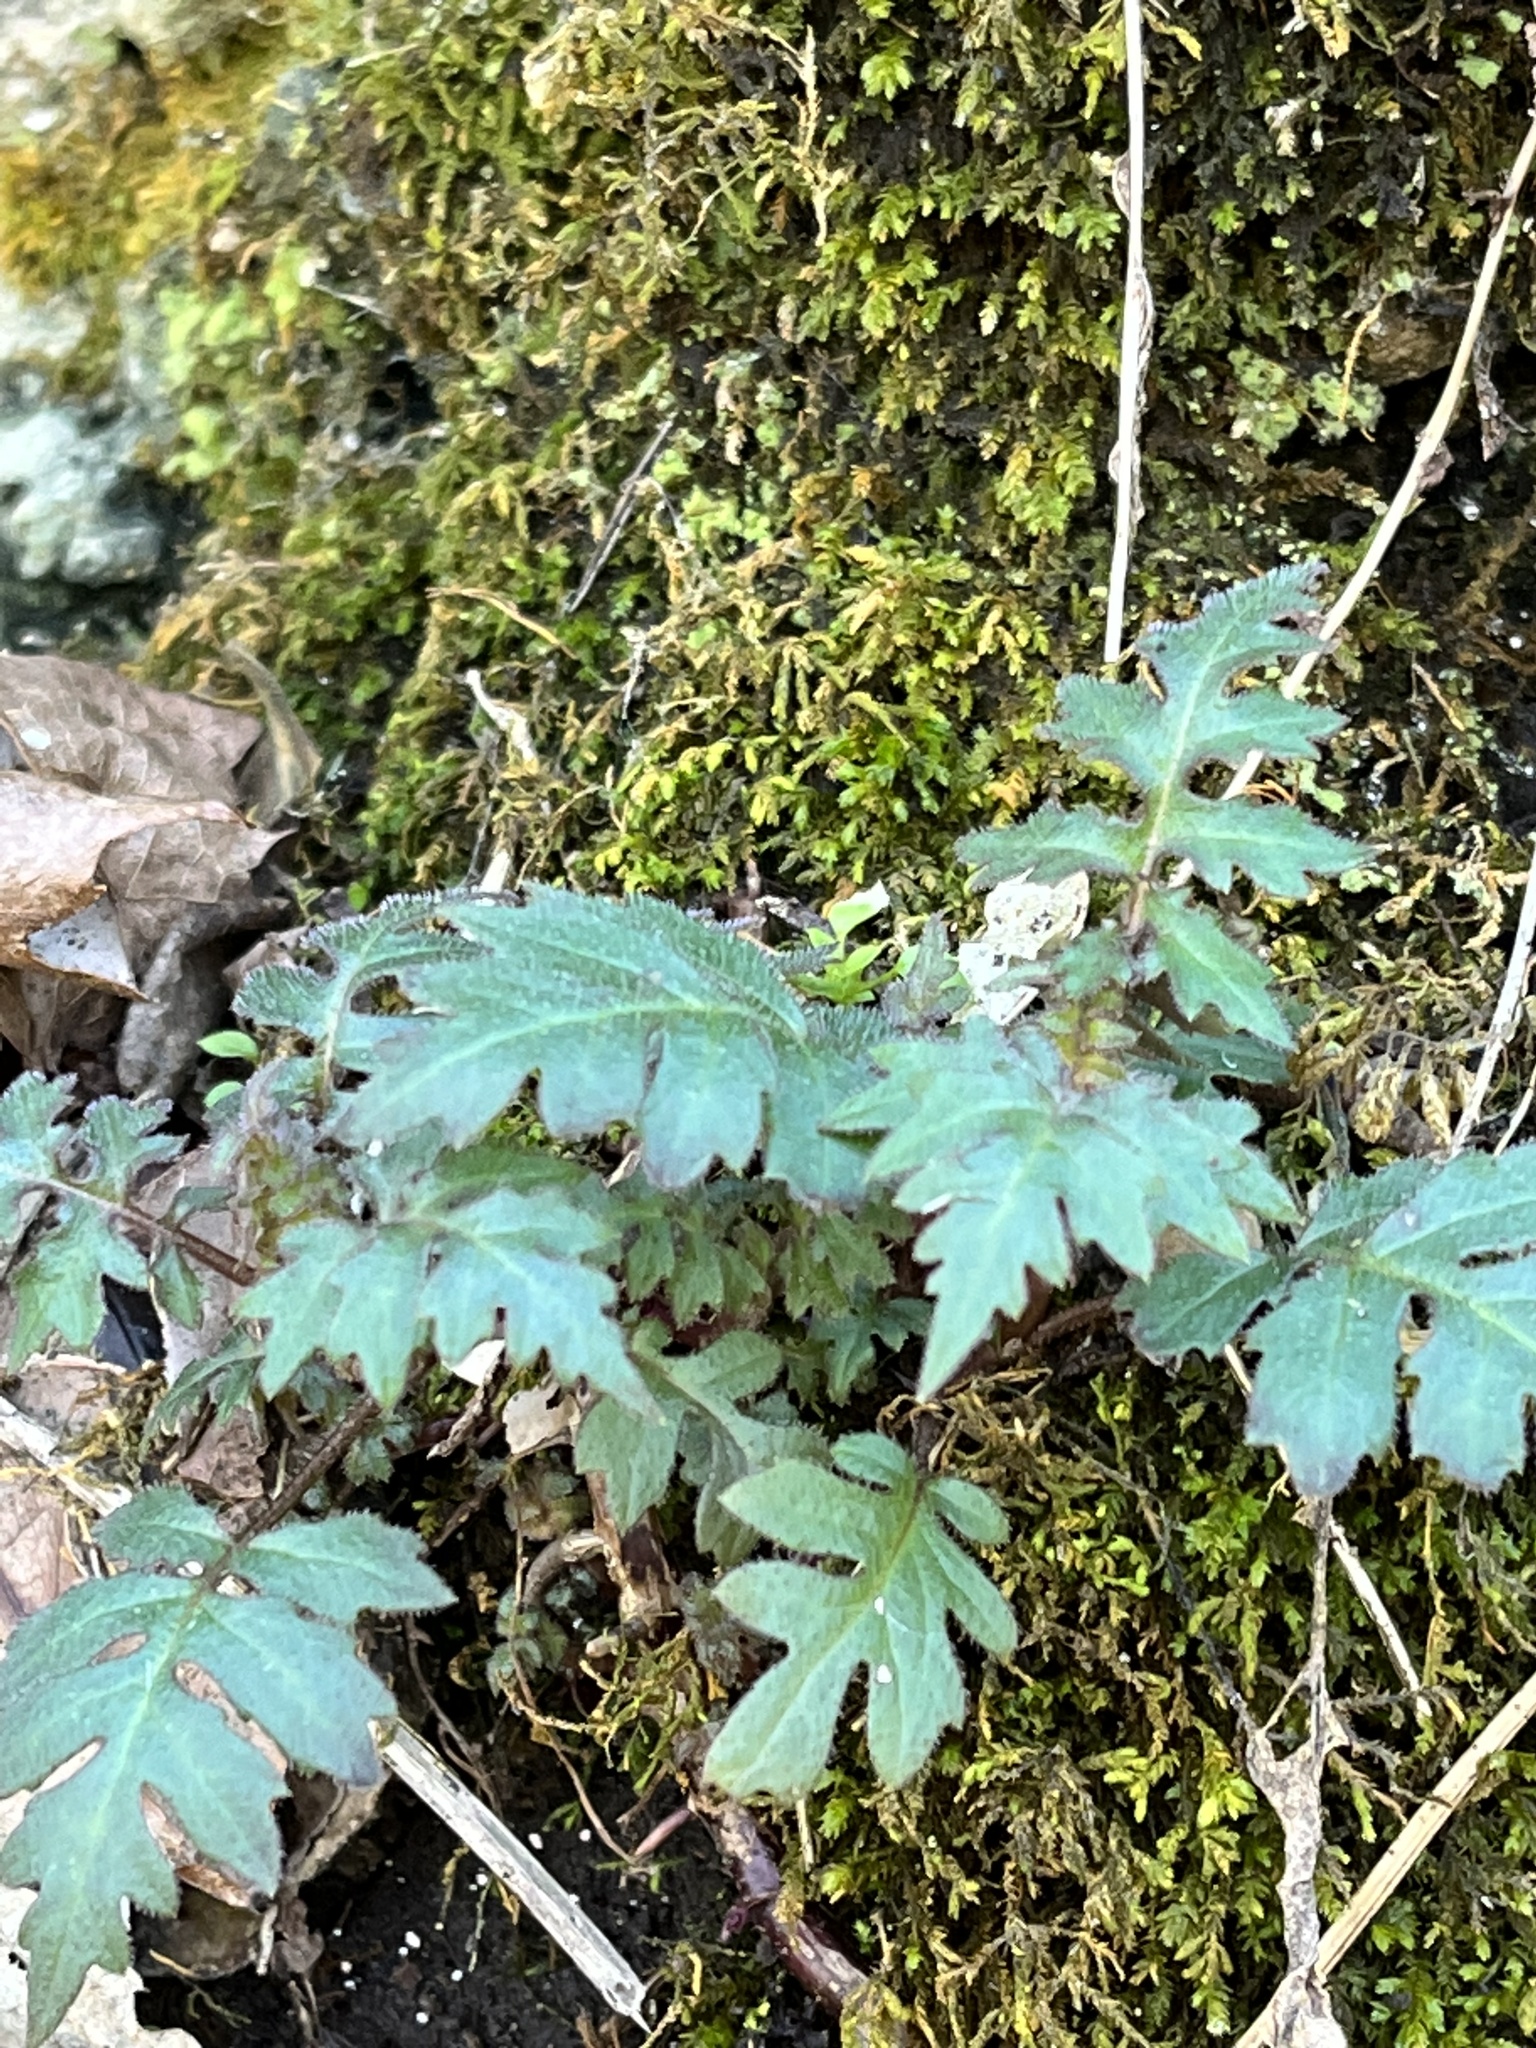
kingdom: Plantae
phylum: Tracheophyta
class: Magnoliopsida
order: Asterales
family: Asteraceae
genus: Polymnia
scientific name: Polymnia canadensis
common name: Pale-flowered leafcup
